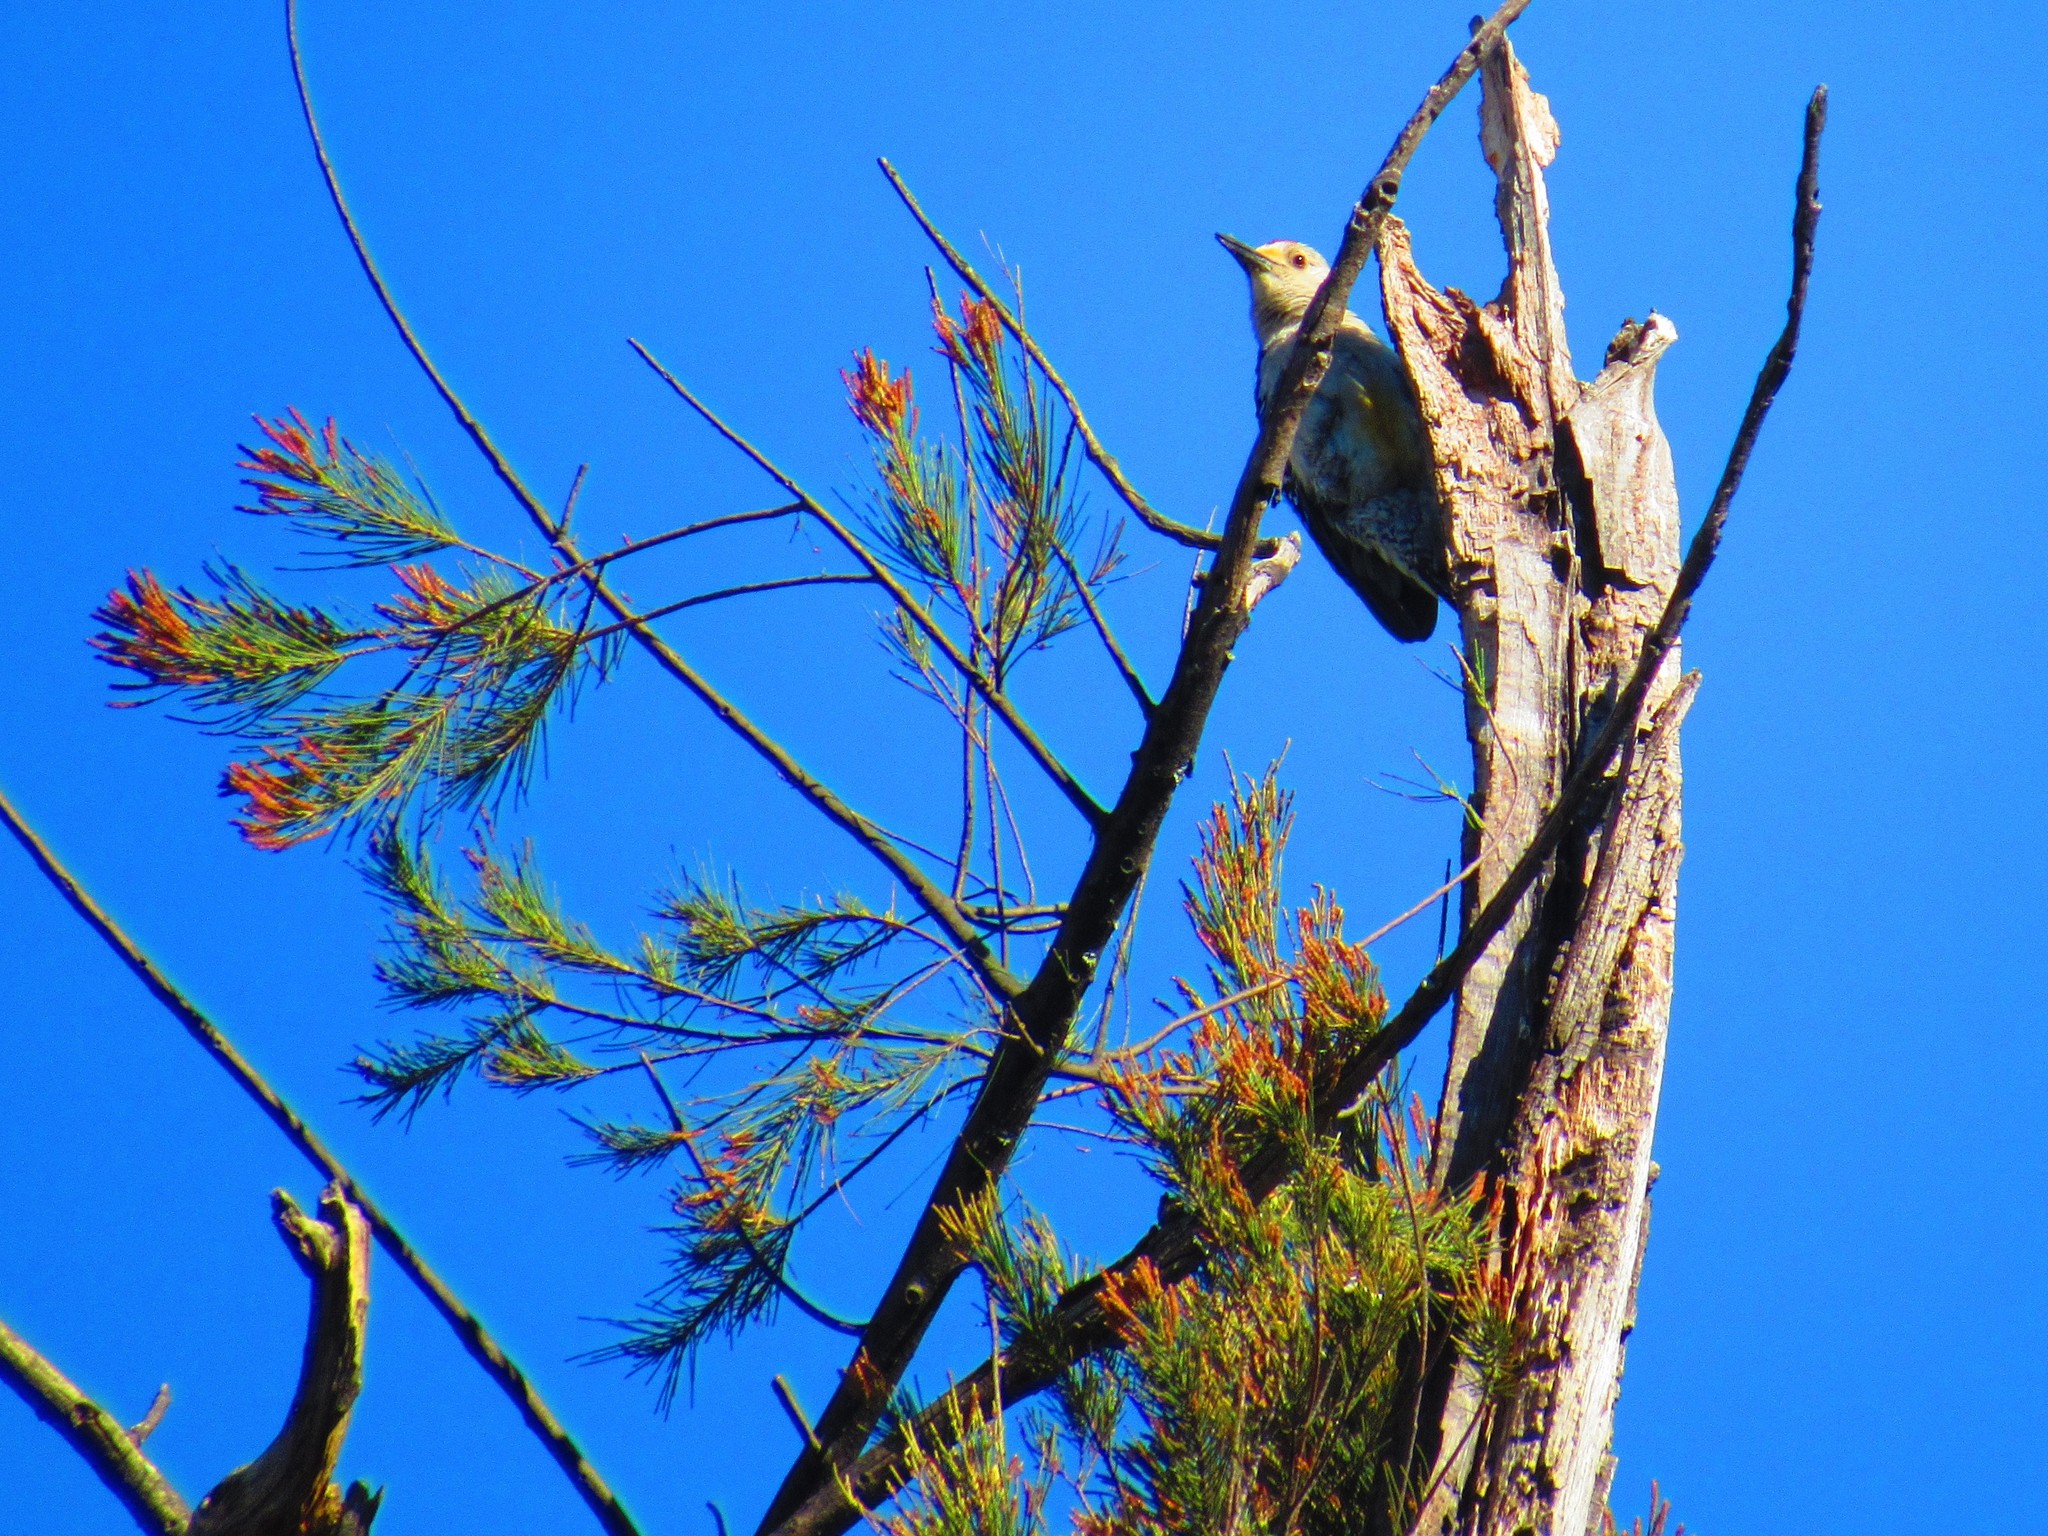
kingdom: Animalia
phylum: Chordata
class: Aves
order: Piciformes
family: Picidae
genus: Melanerpes
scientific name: Melanerpes aurifrons
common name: Golden-fronted woodpecker
